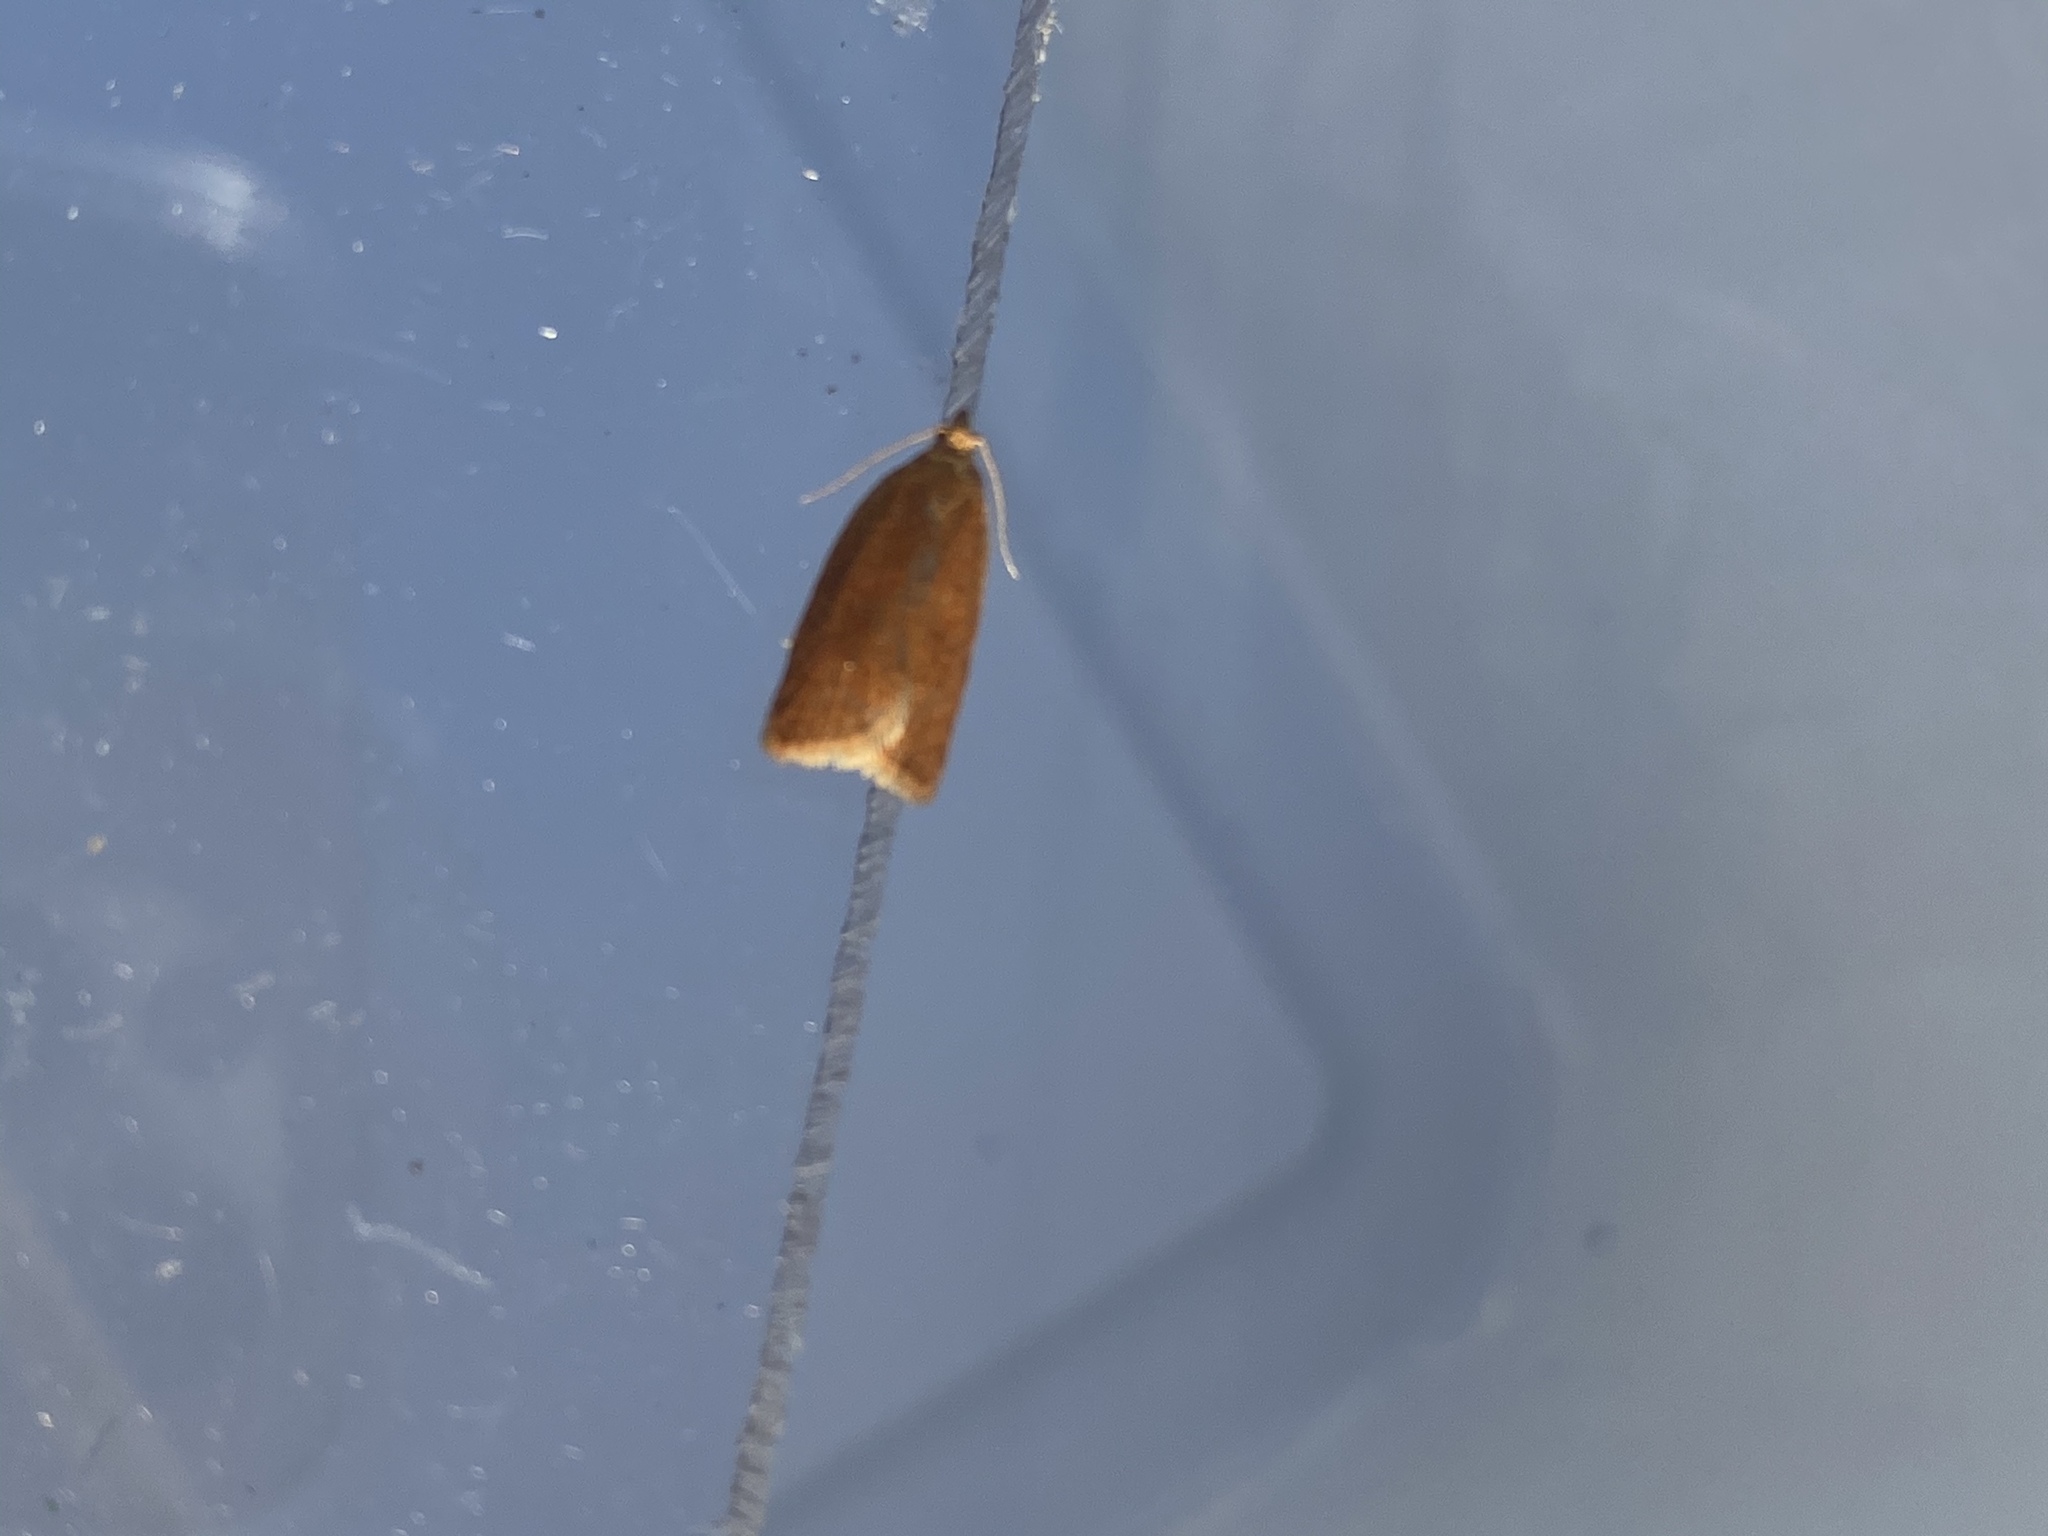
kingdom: Animalia
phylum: Arthropoda
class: Insecta
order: Lepidoptera
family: Oecophoridae
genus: Tachystola
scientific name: Tachystola acroxantha
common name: Ruddy streak
